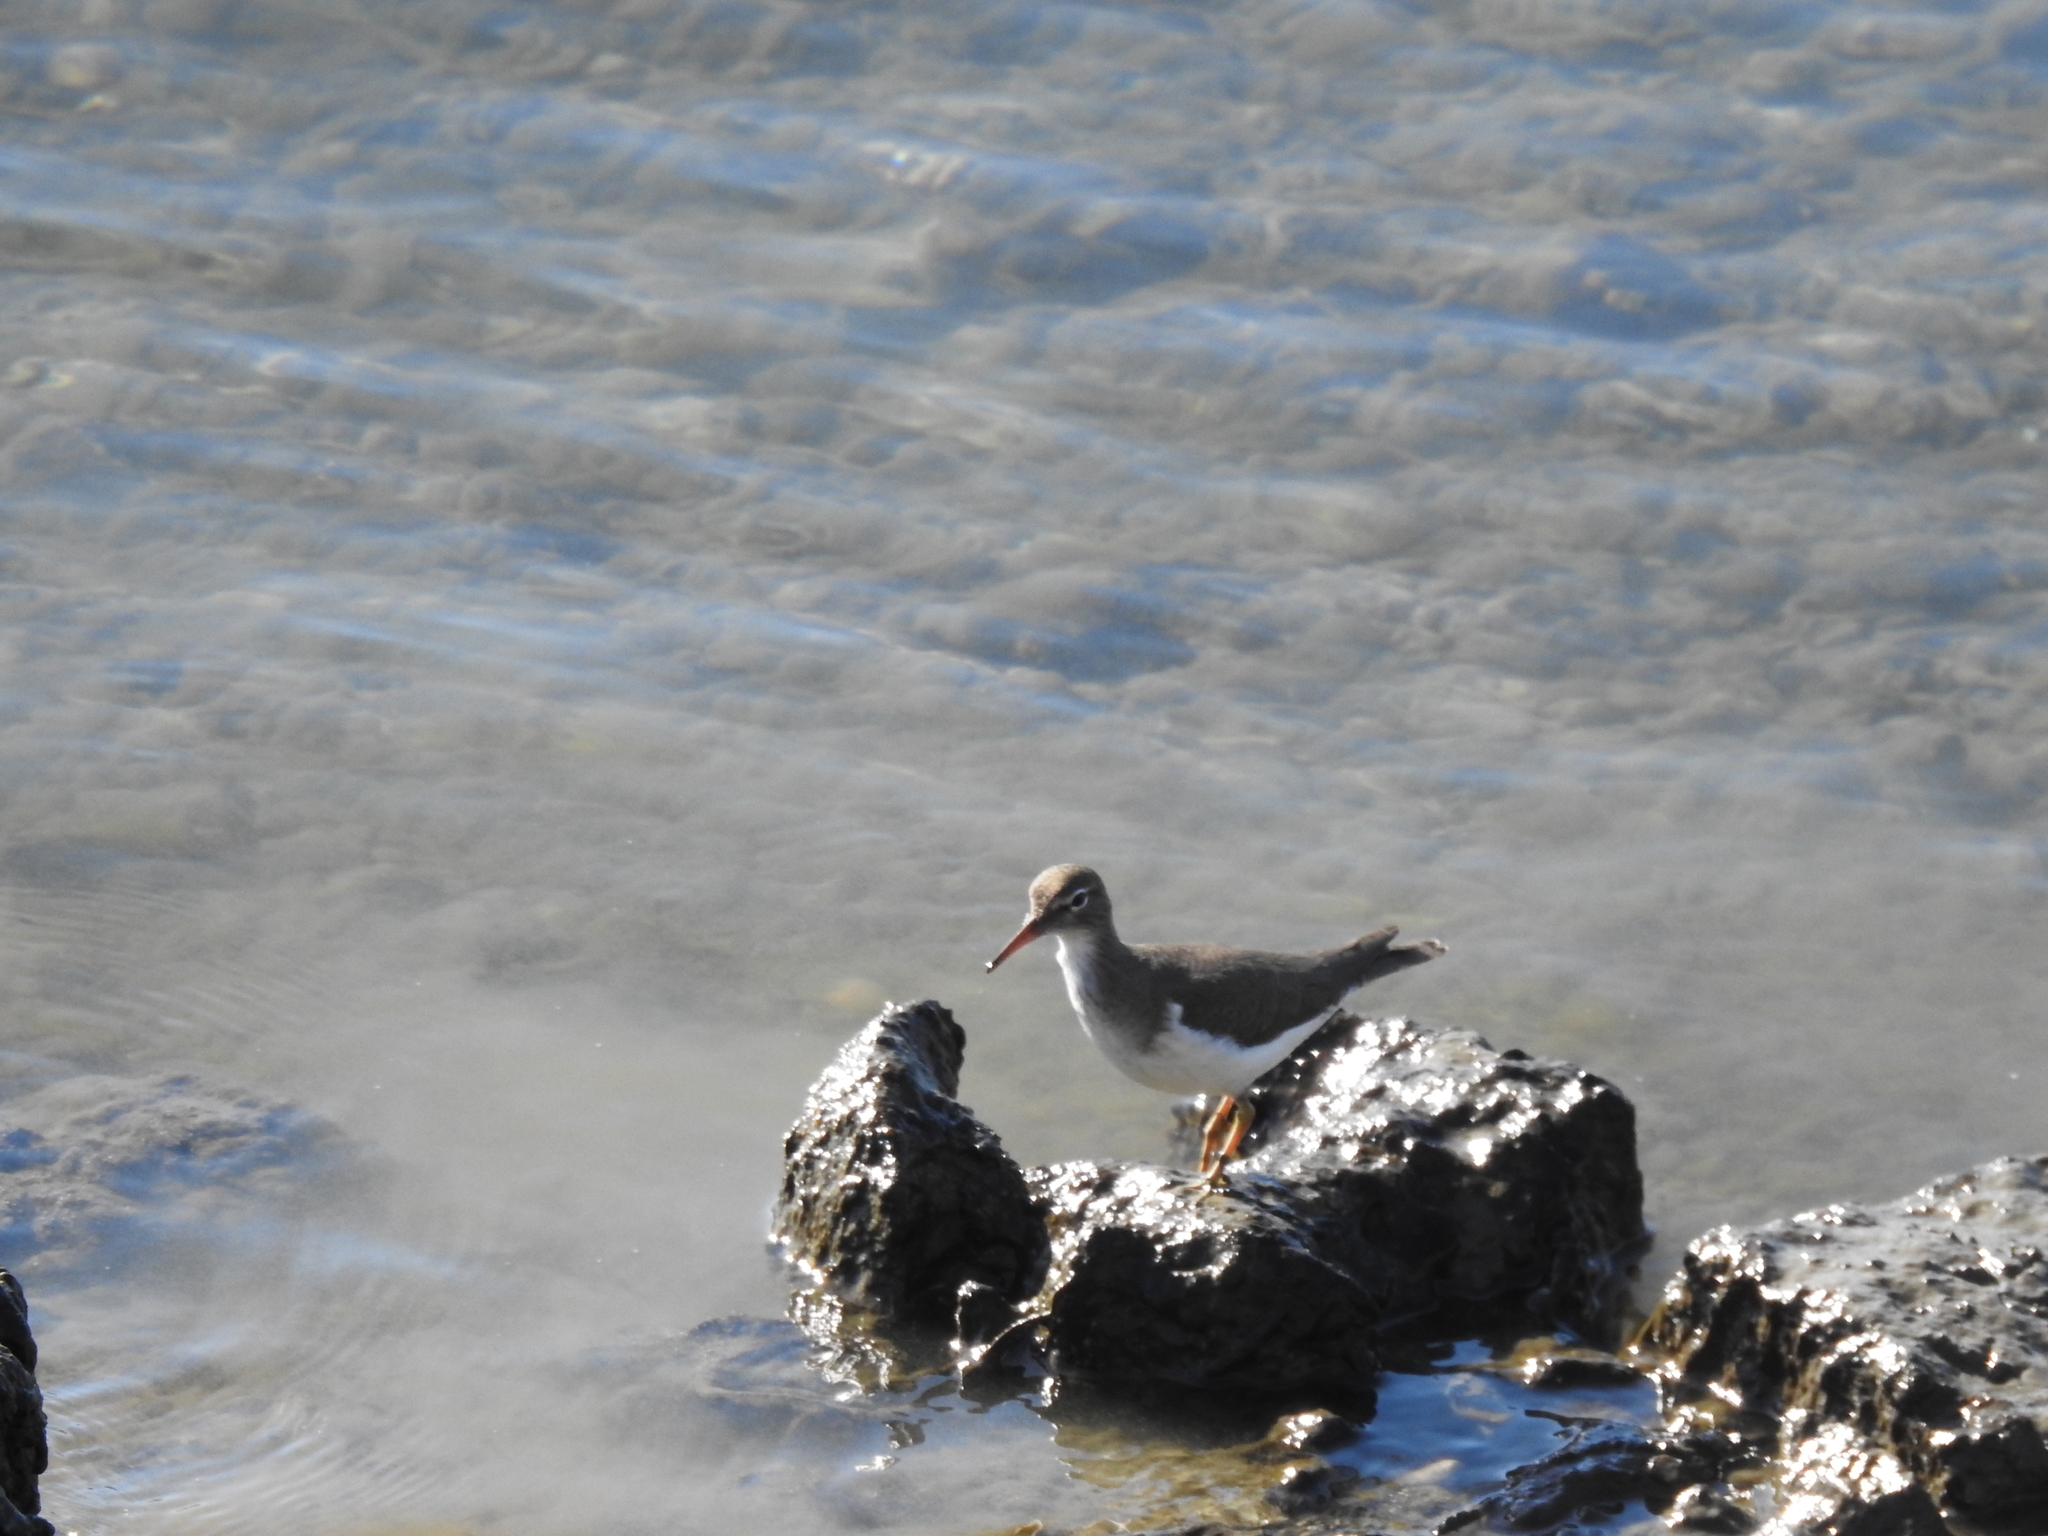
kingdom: Animalia
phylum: Chordata
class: Aves
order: Charadriiformes
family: Scolopacidae
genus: Actitis
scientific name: Actitis macularius
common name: Spotted sandpiper
